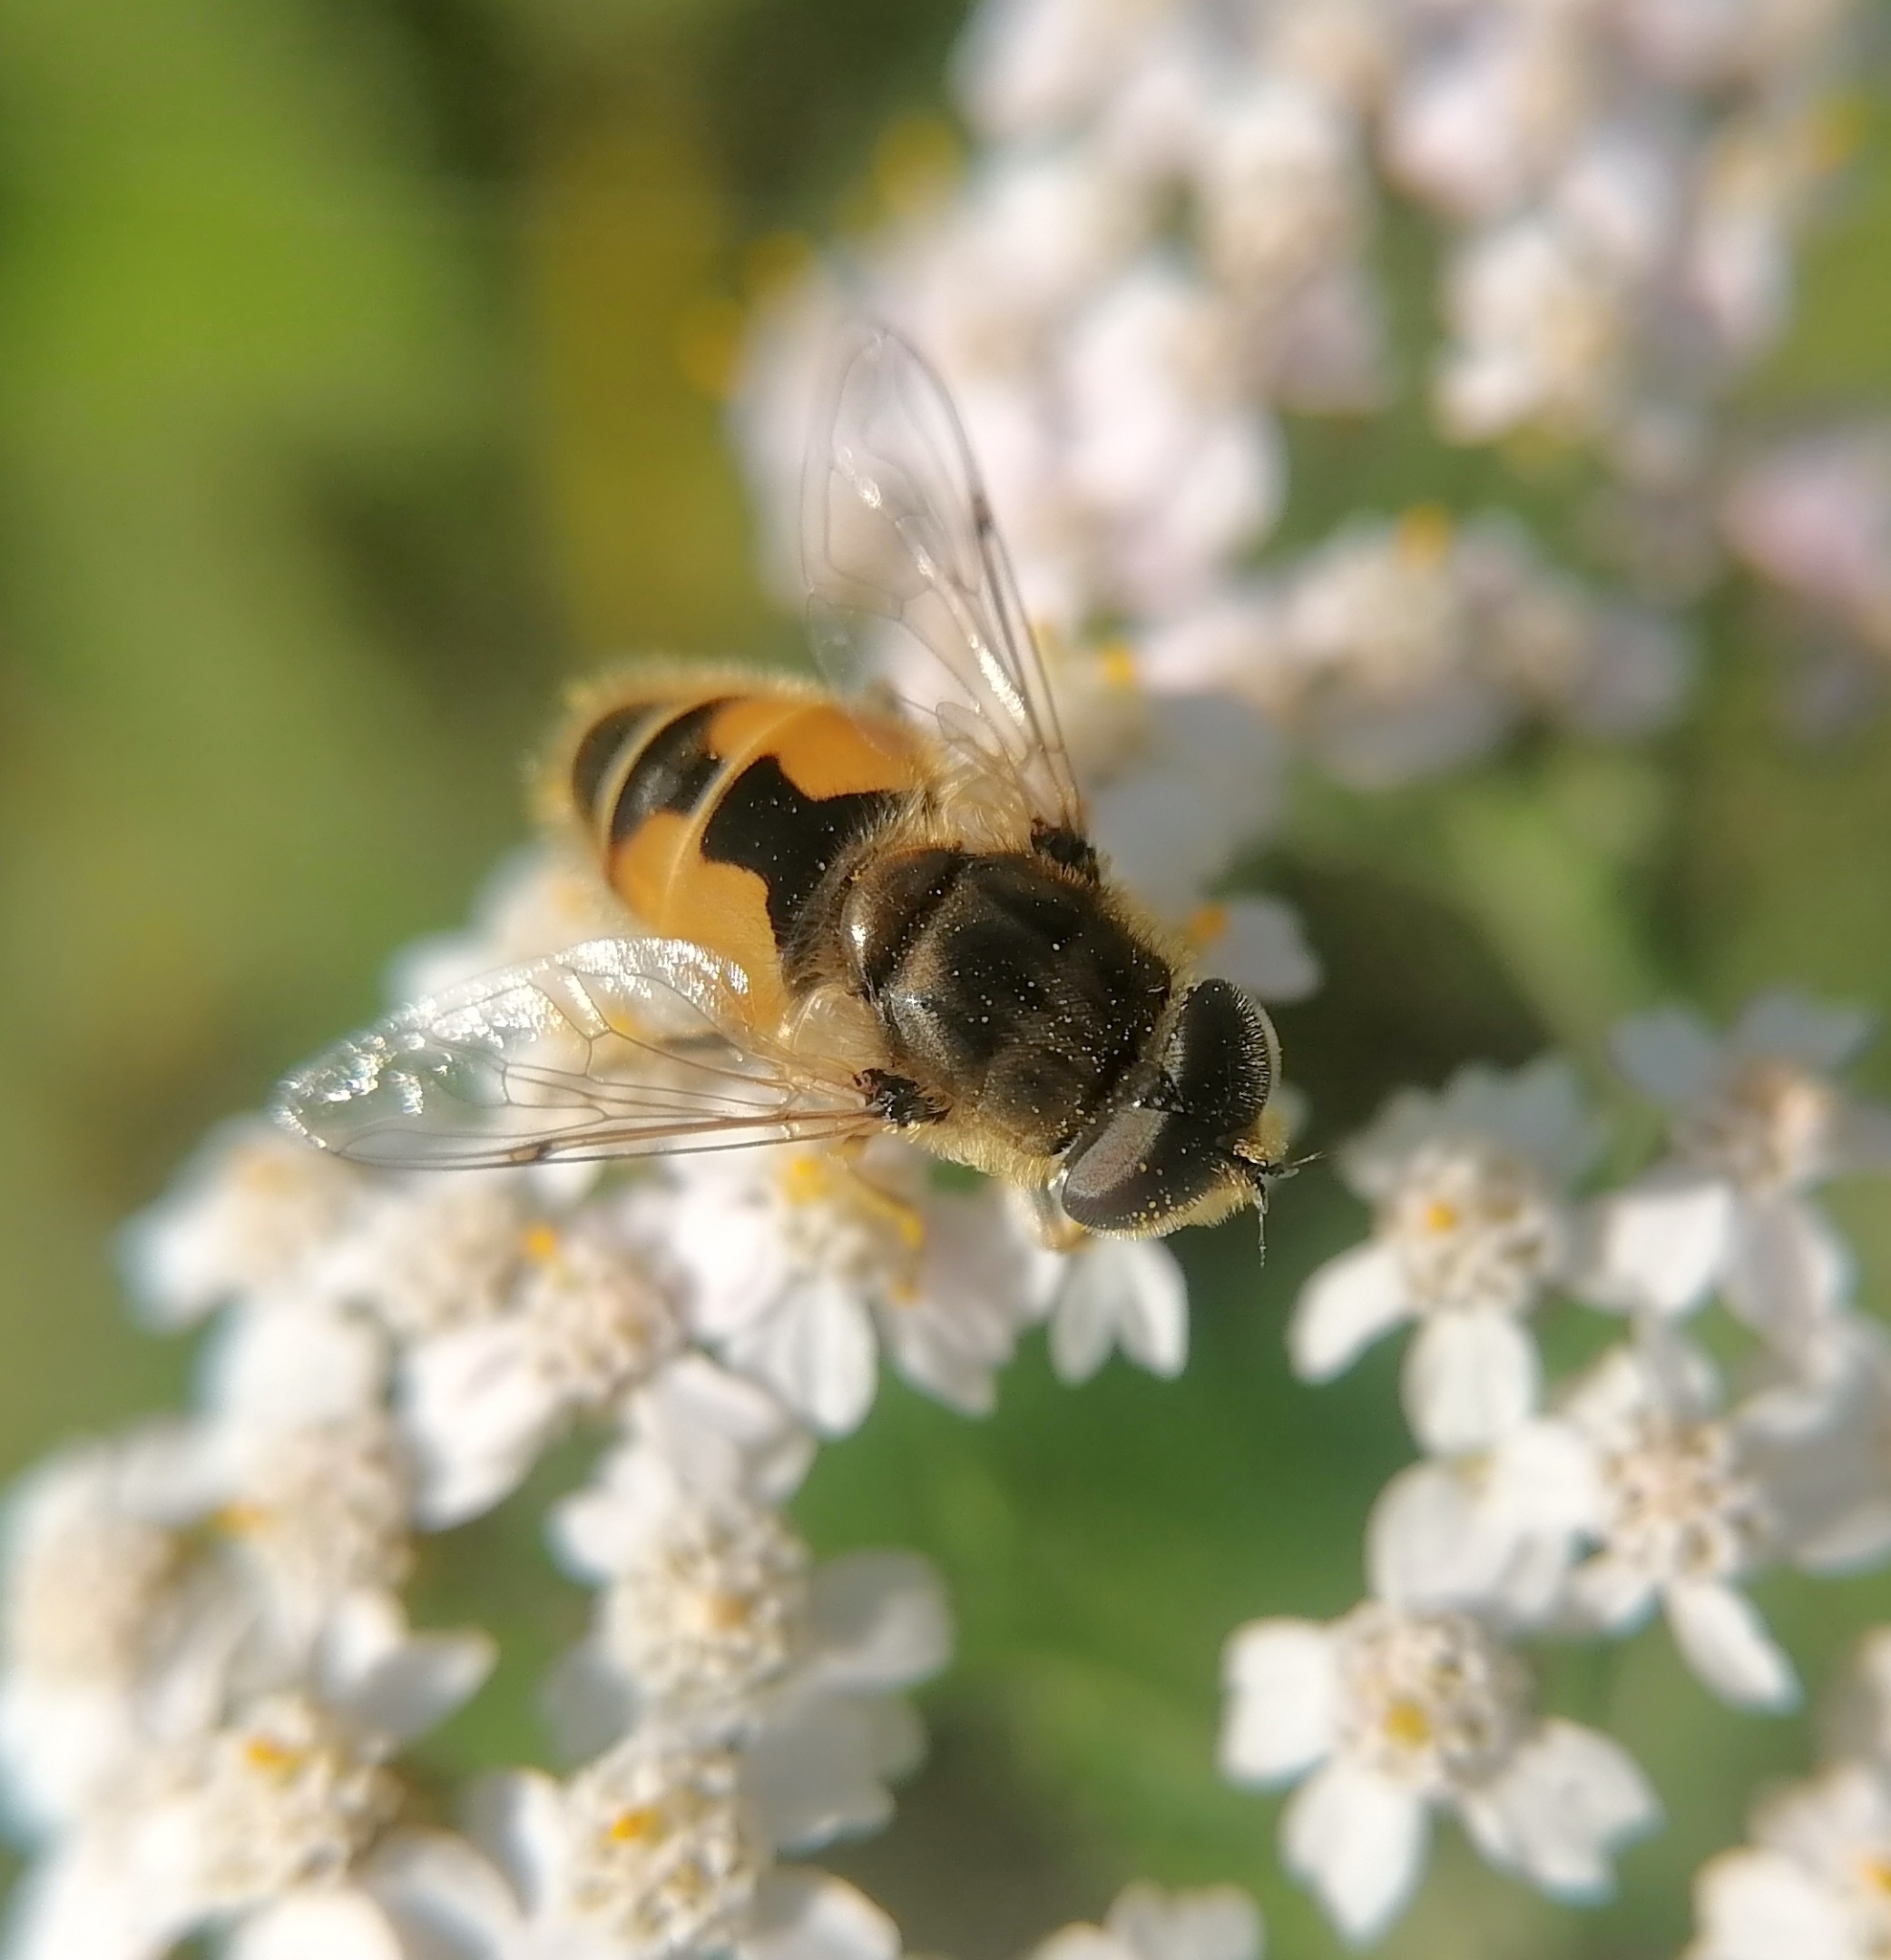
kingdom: Animalia
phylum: Arthropoda
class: Insecta
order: Diptera
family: Syrphidae
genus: Eristalis
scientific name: Eristalis arbustorum
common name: Hover fly
